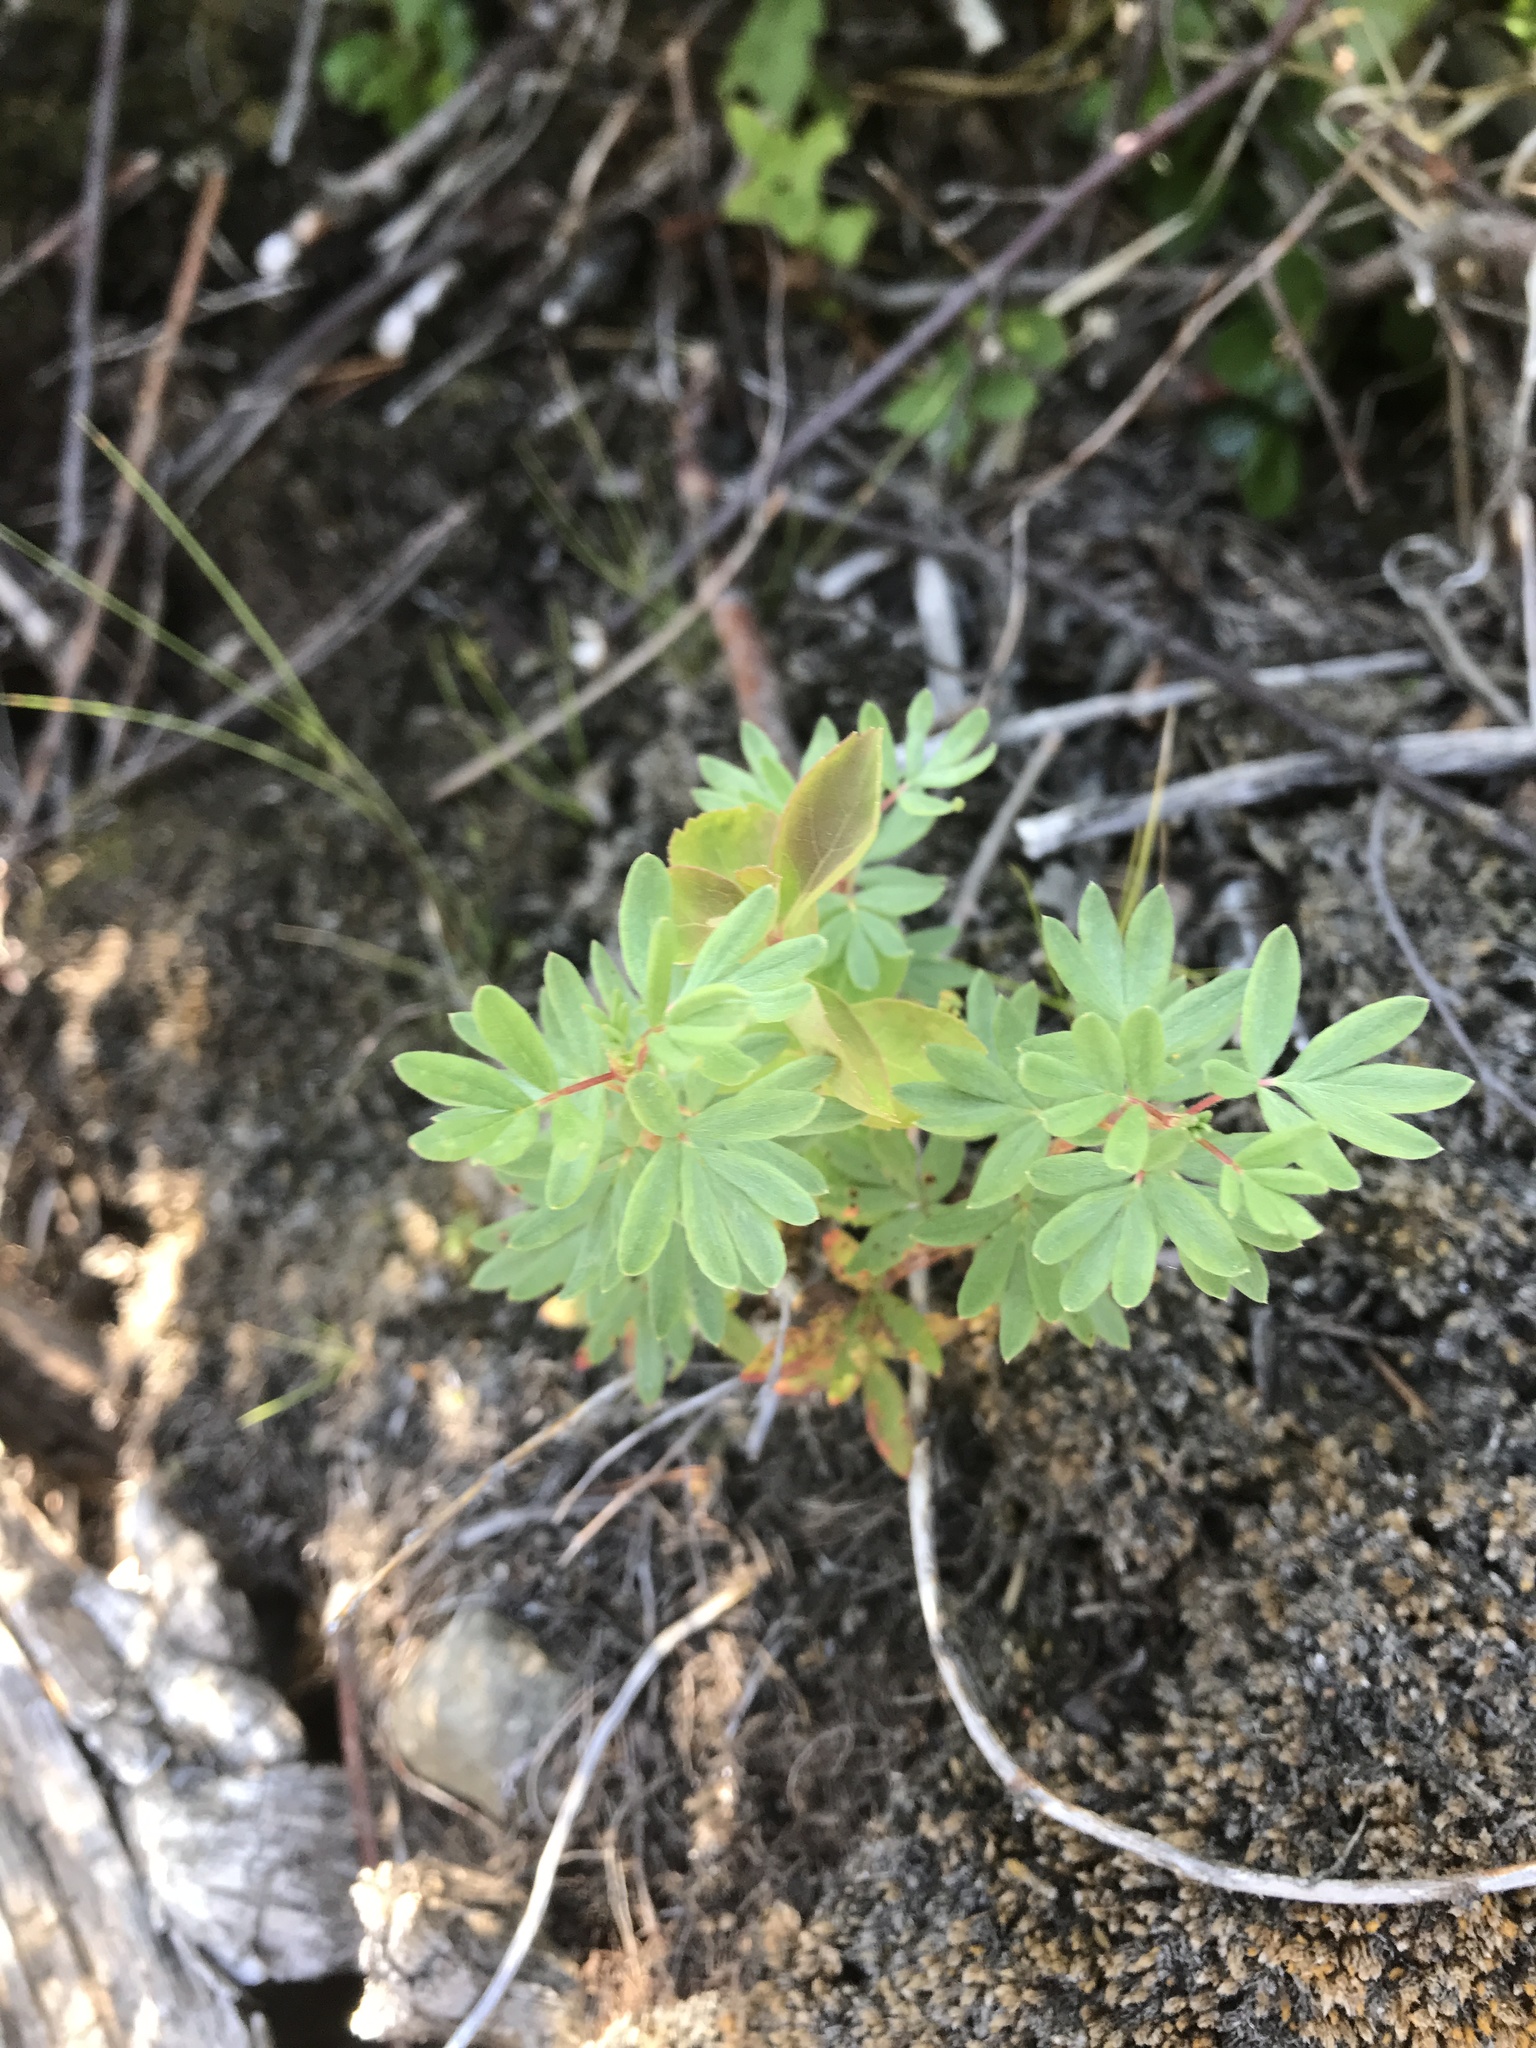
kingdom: Plantae
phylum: Tracheophyta
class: Magnoliopsida
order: Rosales
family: Rosaceae
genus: Dasiphora
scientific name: Dasiphora fruticosa
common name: Shrubby cinquefoil
